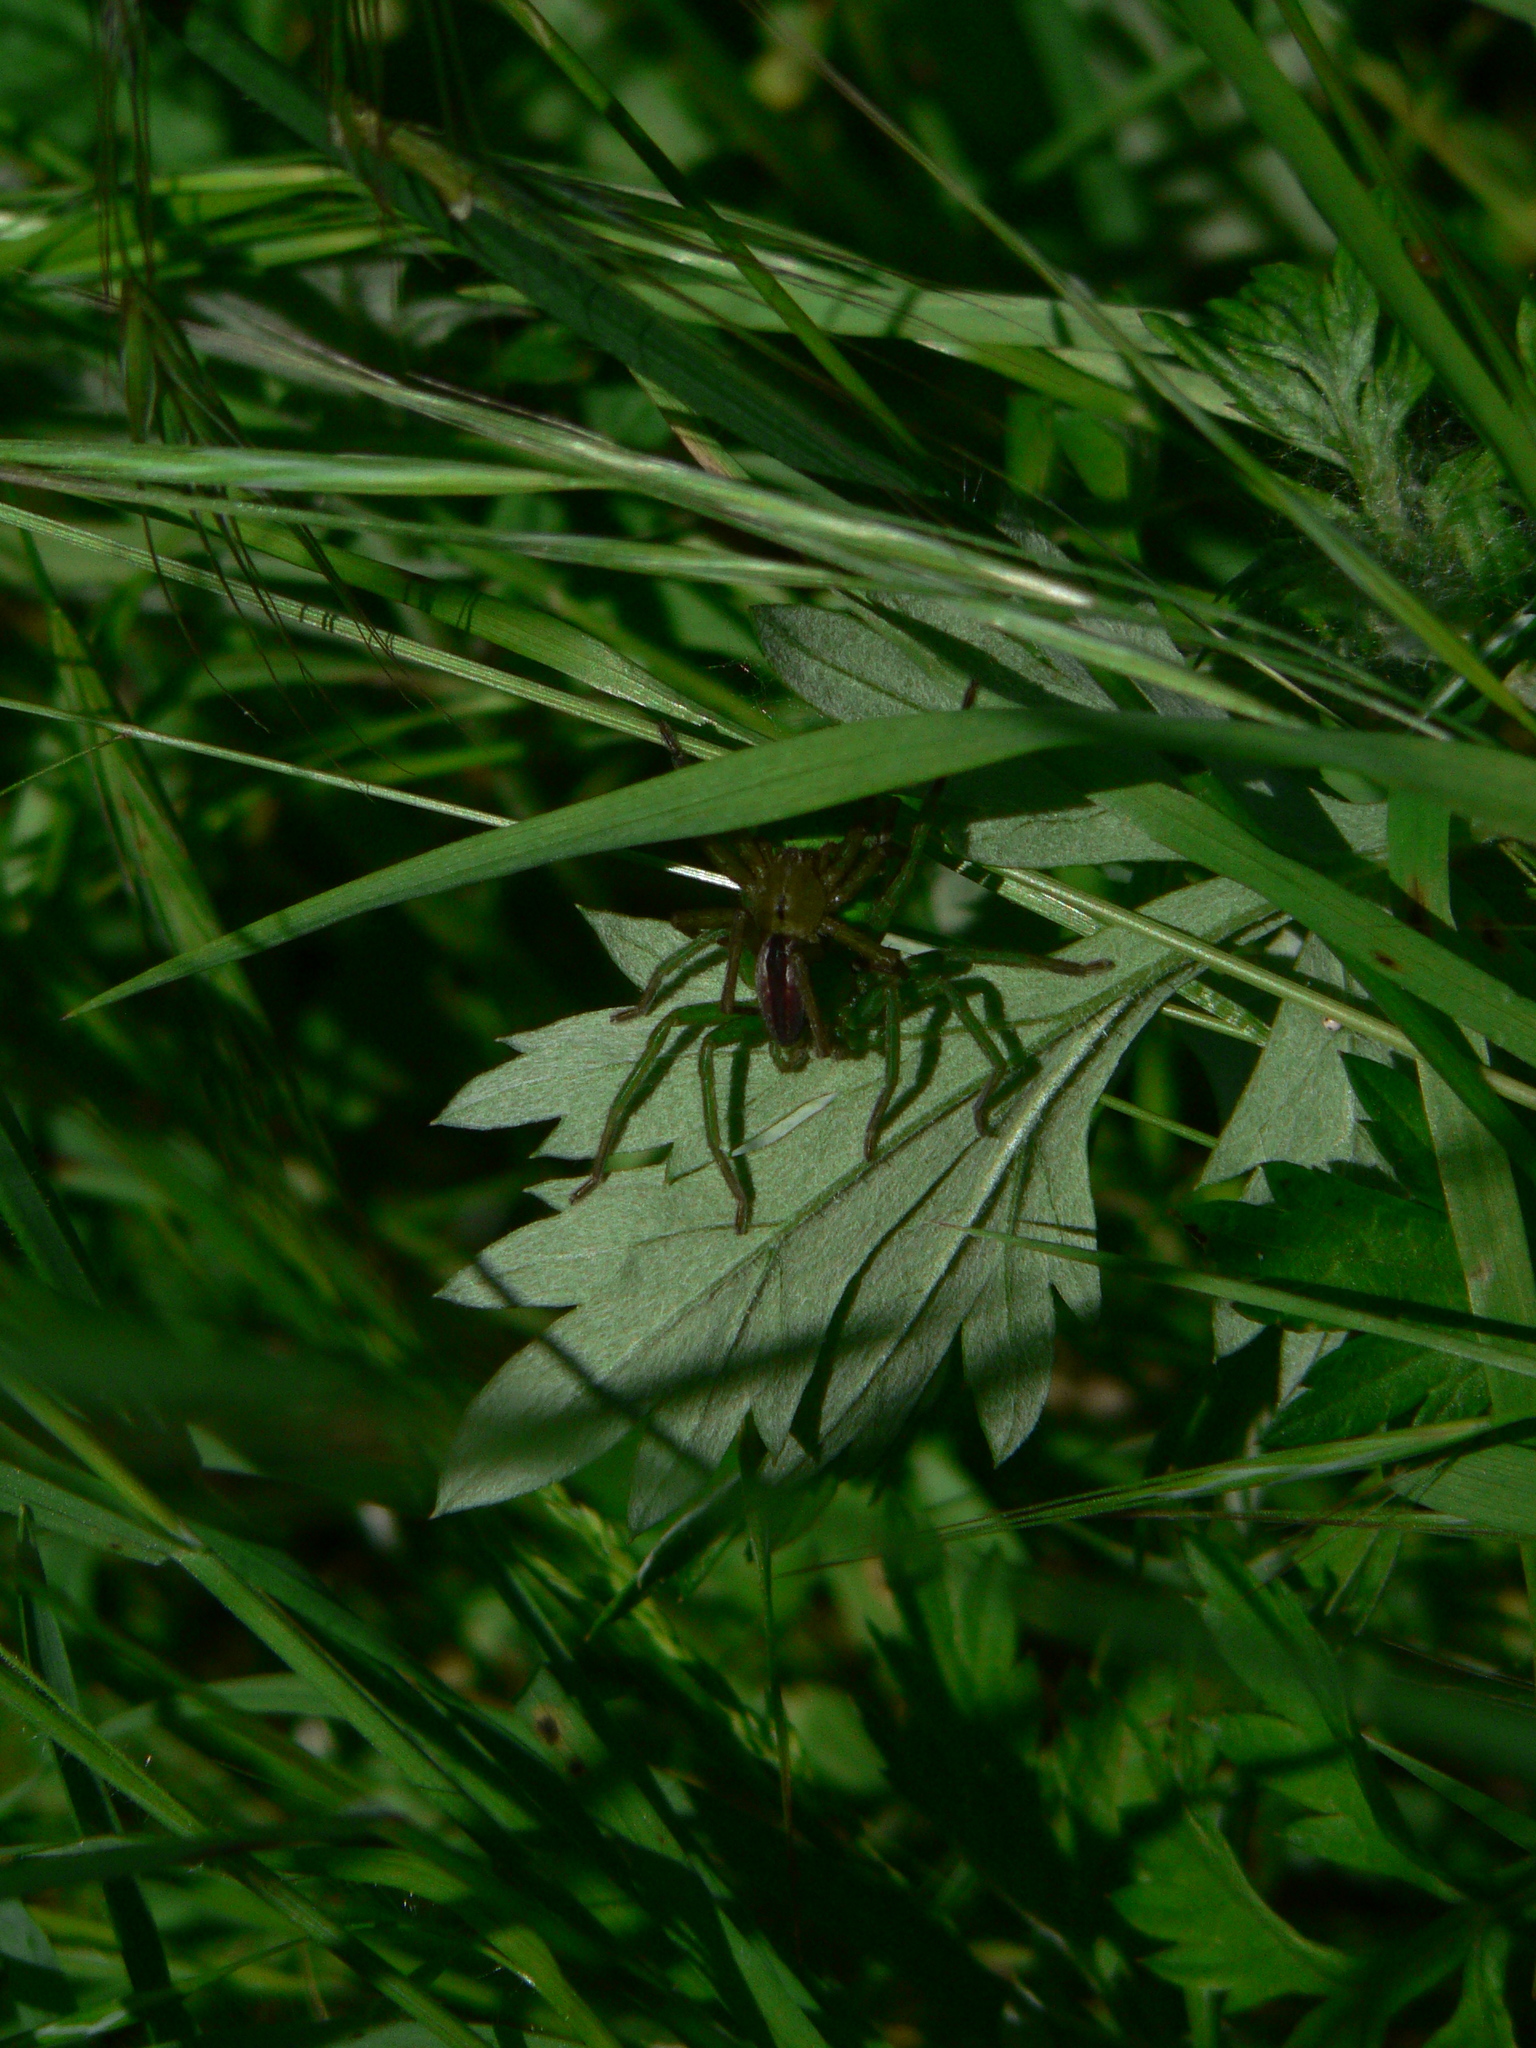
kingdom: Animalia
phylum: Arthropoda
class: Arachnida
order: Araneae
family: Sparassidae
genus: Micrommata
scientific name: Micrommata ligurina
